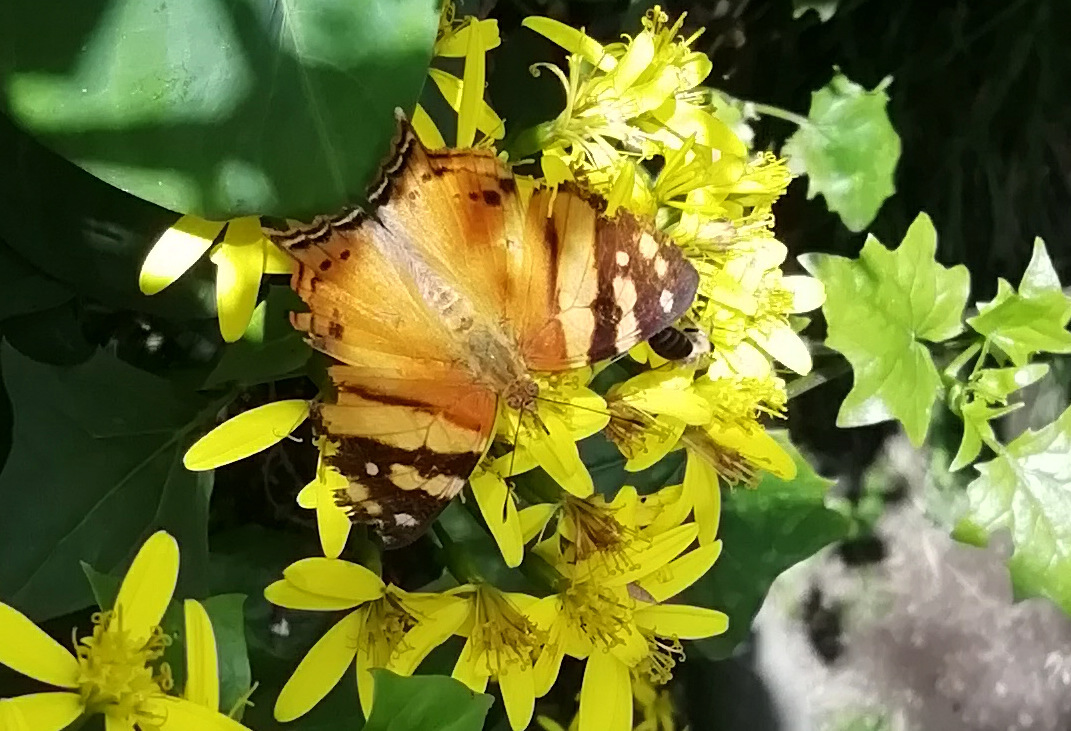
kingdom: Animalia
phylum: Arthropoda
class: Insecta
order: Lepidoptera
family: Nymphalidae
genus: Hypanartia
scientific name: Hypanartia lethe
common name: Orange mapwing
